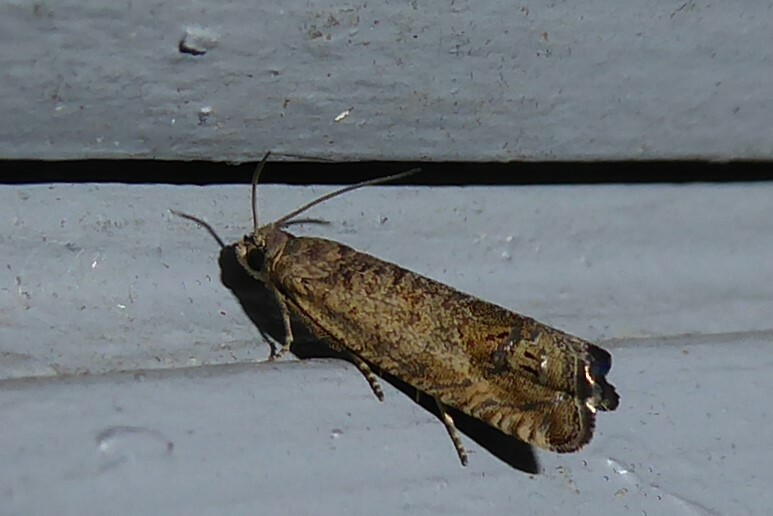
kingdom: Animalia
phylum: Arthropoda
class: Insecta
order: Lepidoptera
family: Tortricidae
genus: Cydia
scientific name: Cydia succedana
